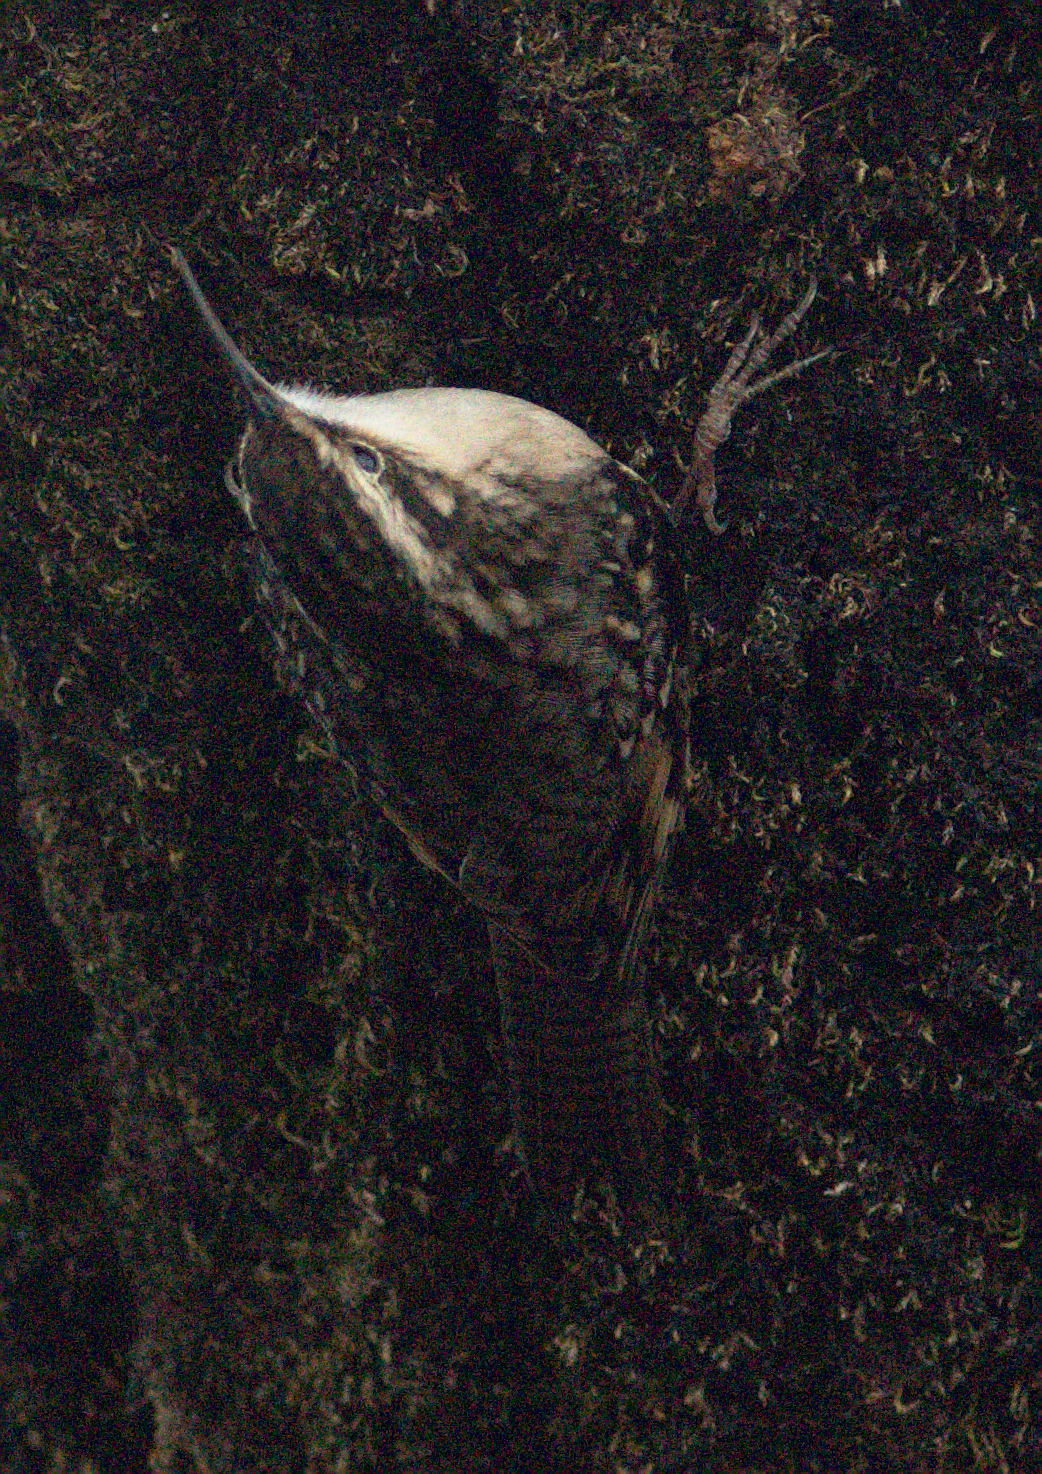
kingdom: Animalia
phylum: Chordata
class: Aves
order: Passeriformes
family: Certhiidae
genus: Certhia
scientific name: Certhia himalayana
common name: Bar-tailed treecreeper
